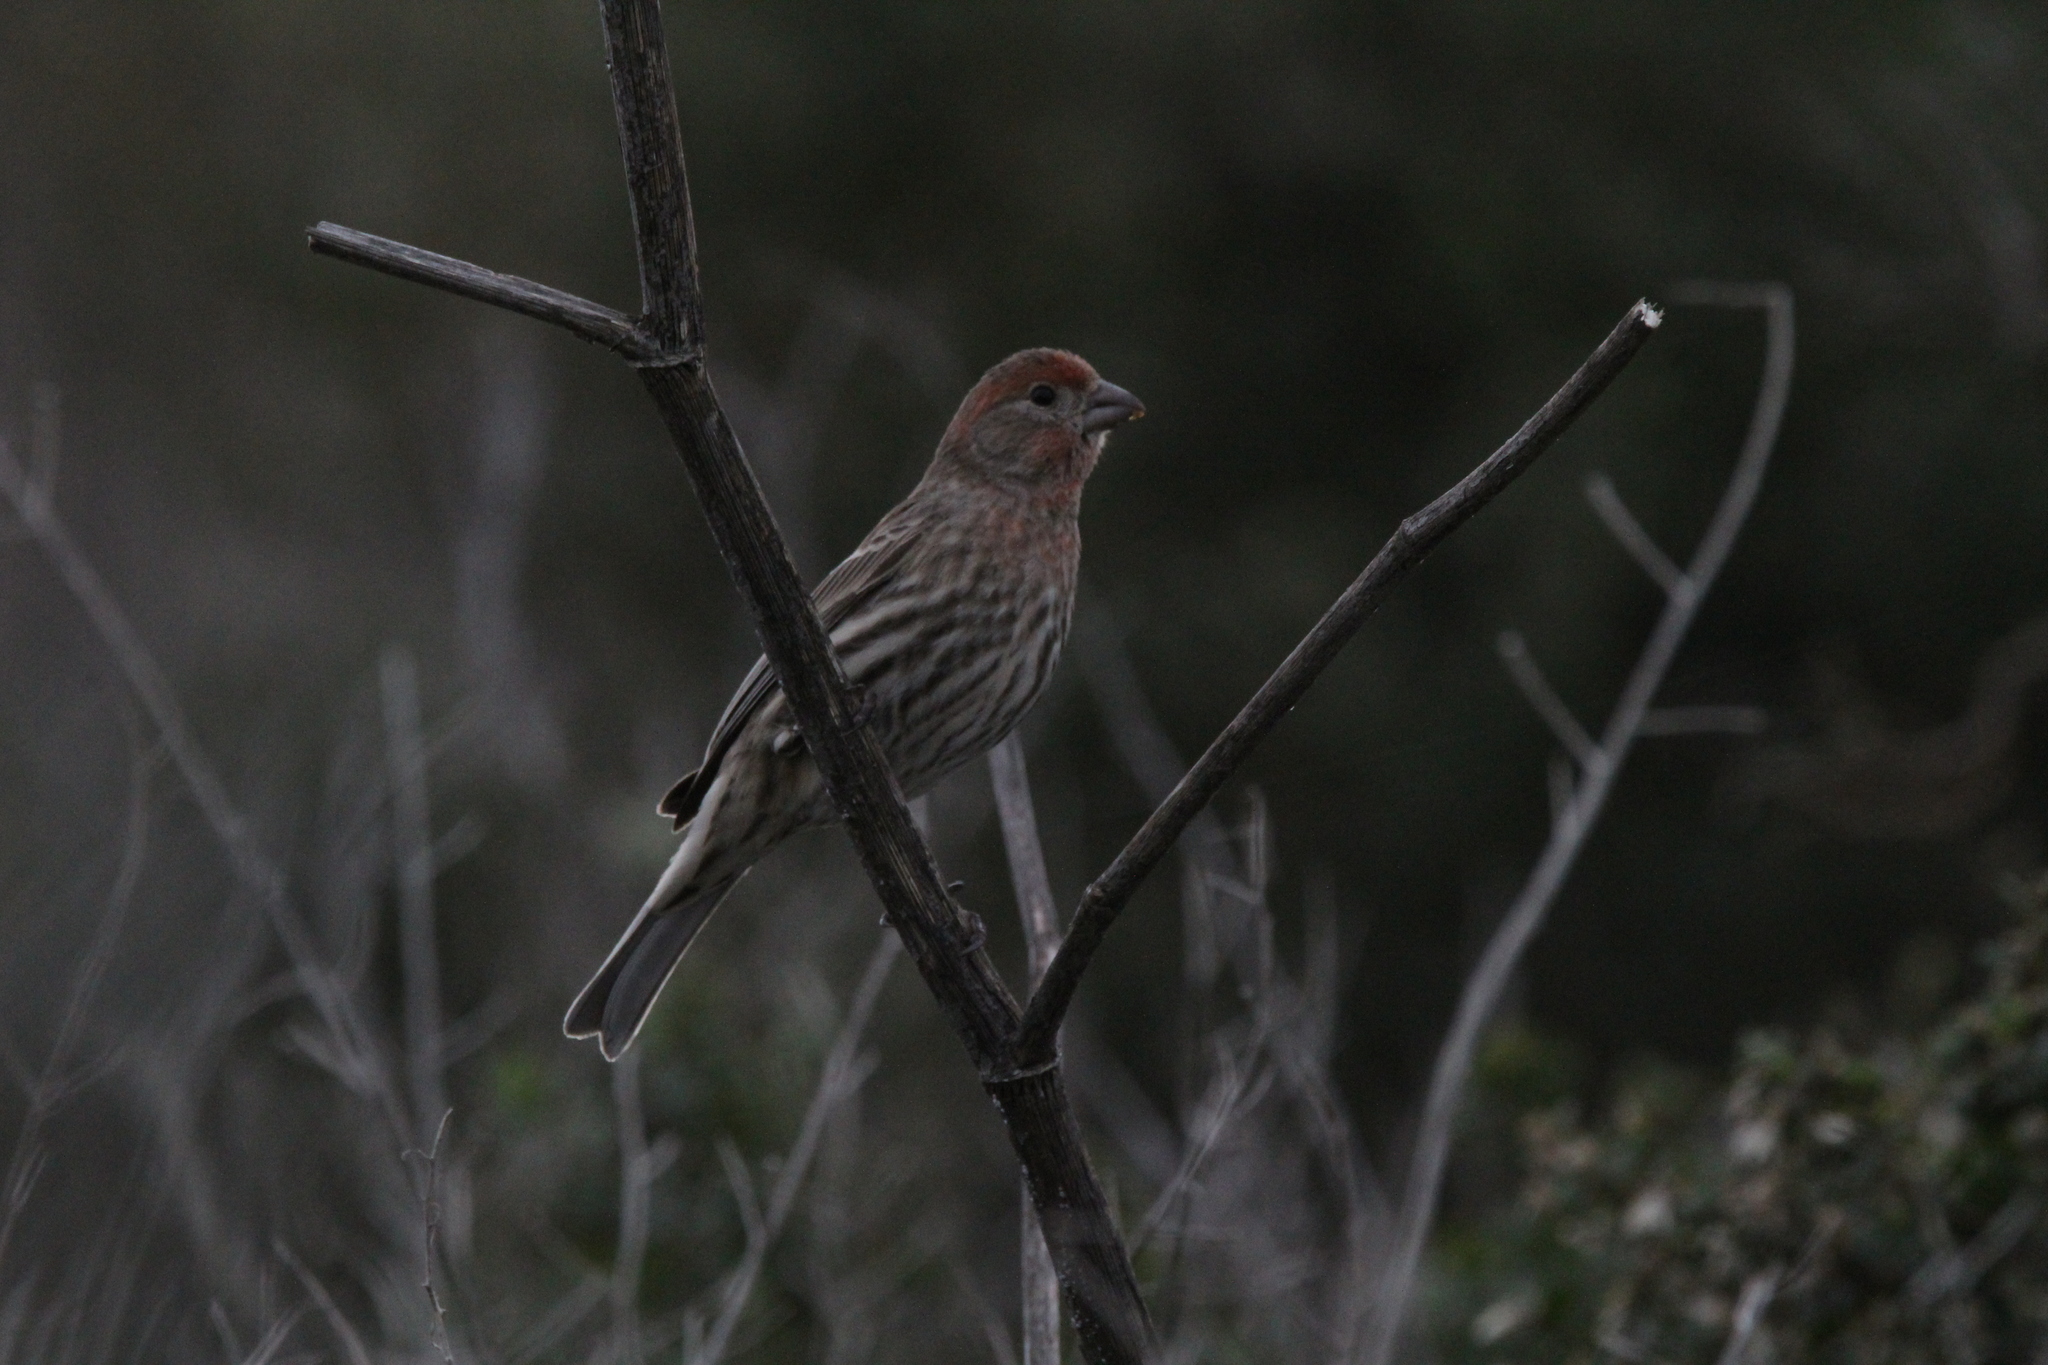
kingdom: Animalia
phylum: Chordata
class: Aves
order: Passeriformes
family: Fringillidae
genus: Haemorhous
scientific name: Haemorhous mexicanus
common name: House finch
